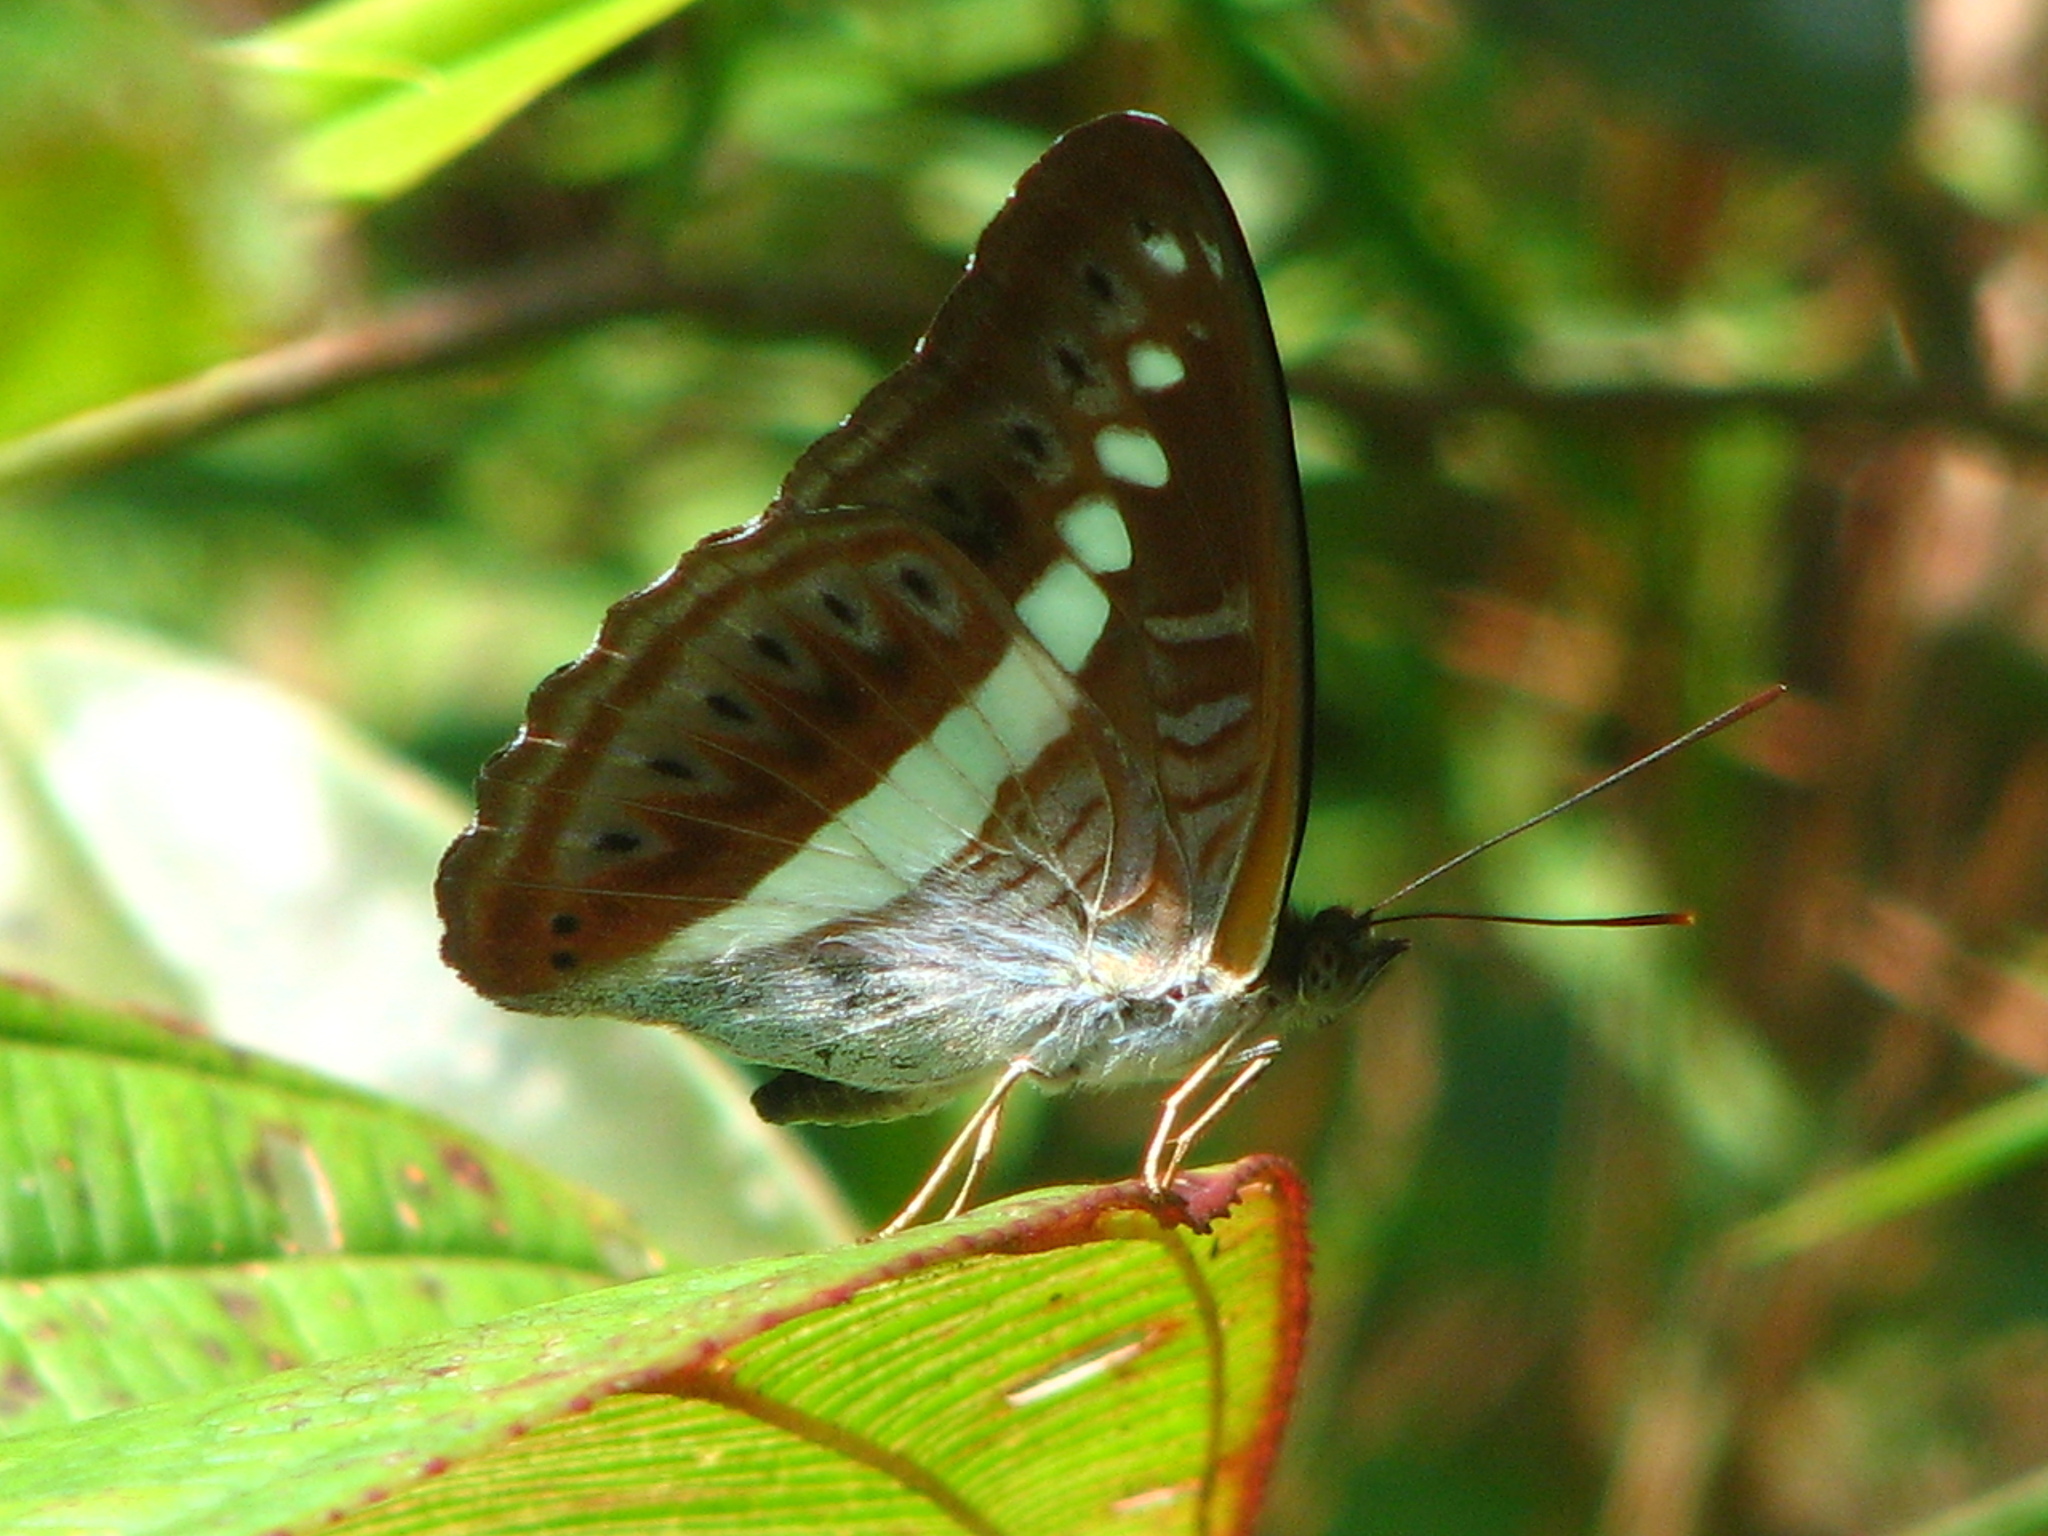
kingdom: Animalia
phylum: Arthropoda
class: Insecta
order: Lepidoptera
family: Nymphalidae
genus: Limenitis
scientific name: Limenitis Sumalia daraxa
